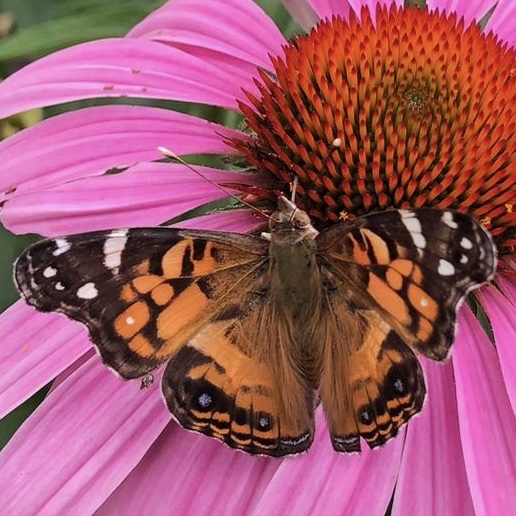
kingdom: Animalia
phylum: Arthropoda
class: Insecta
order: Lepidoptera
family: Nymphalidae
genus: Vanessa
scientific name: Vanessa virginiensis
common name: American lady
